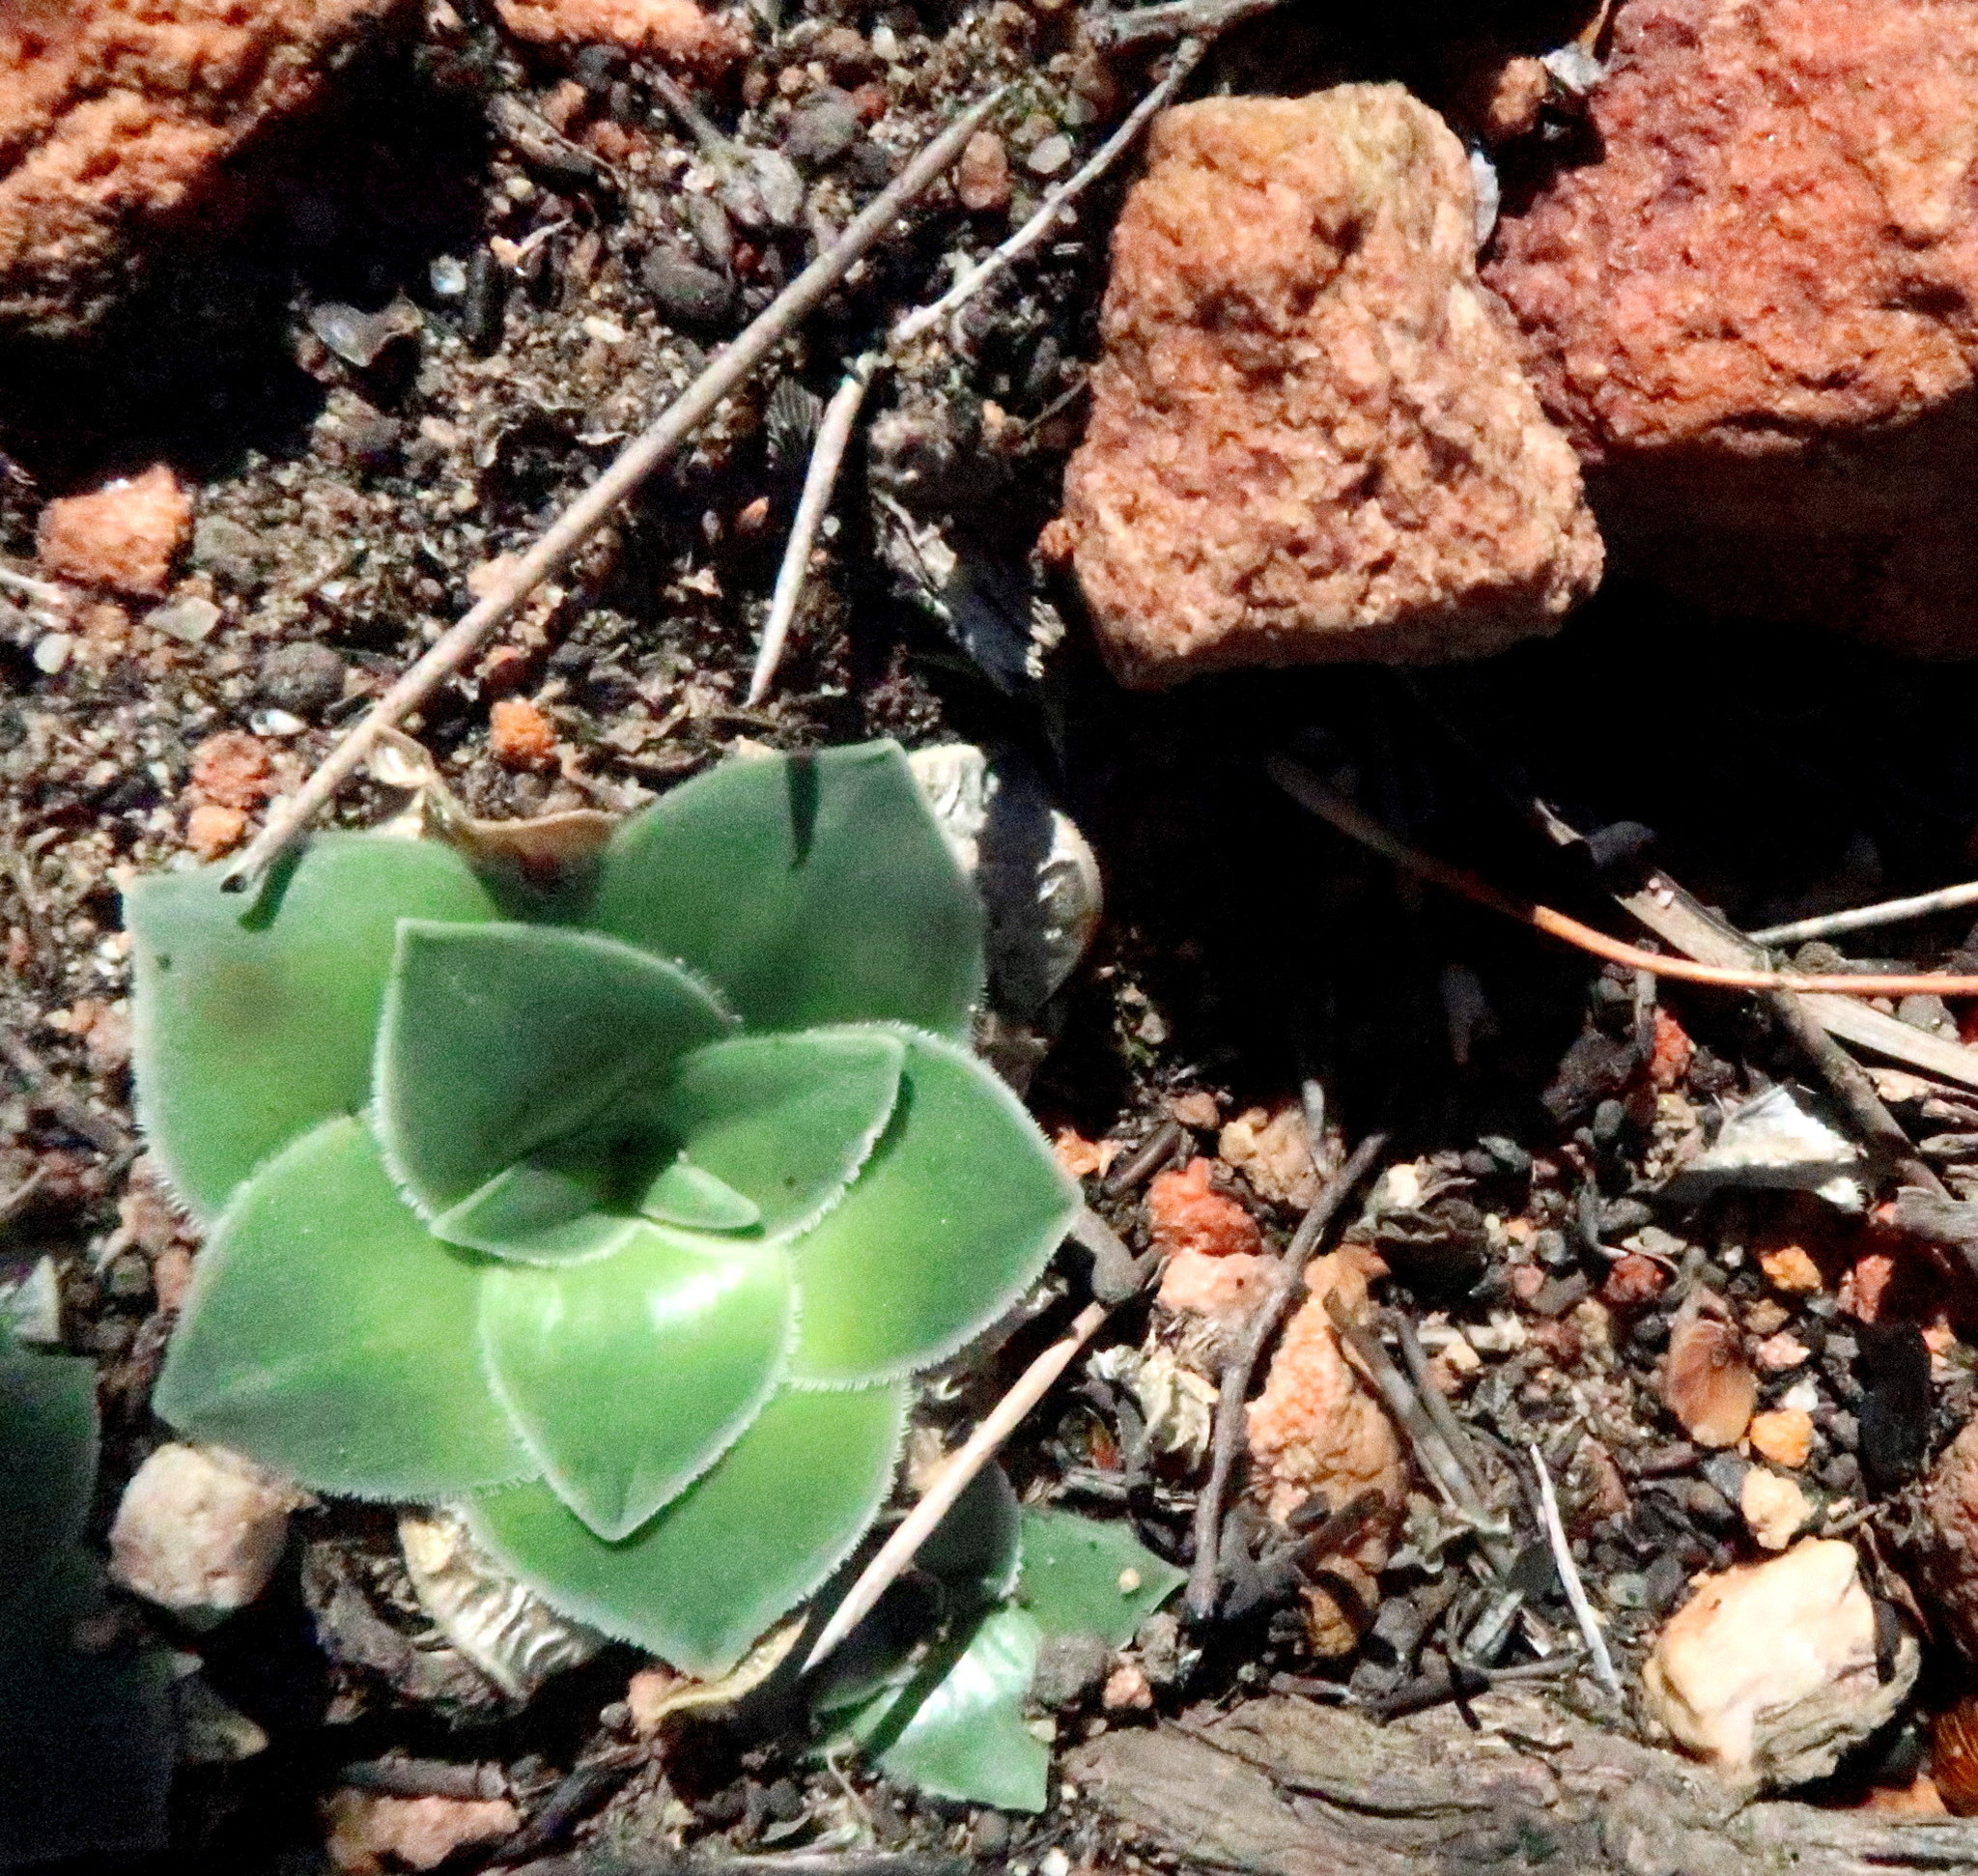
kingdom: Plantae
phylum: Tracheophyta
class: Liliopsida
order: Asparagales
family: Asparagaceae
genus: Drimia
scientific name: Drimia ciliata
